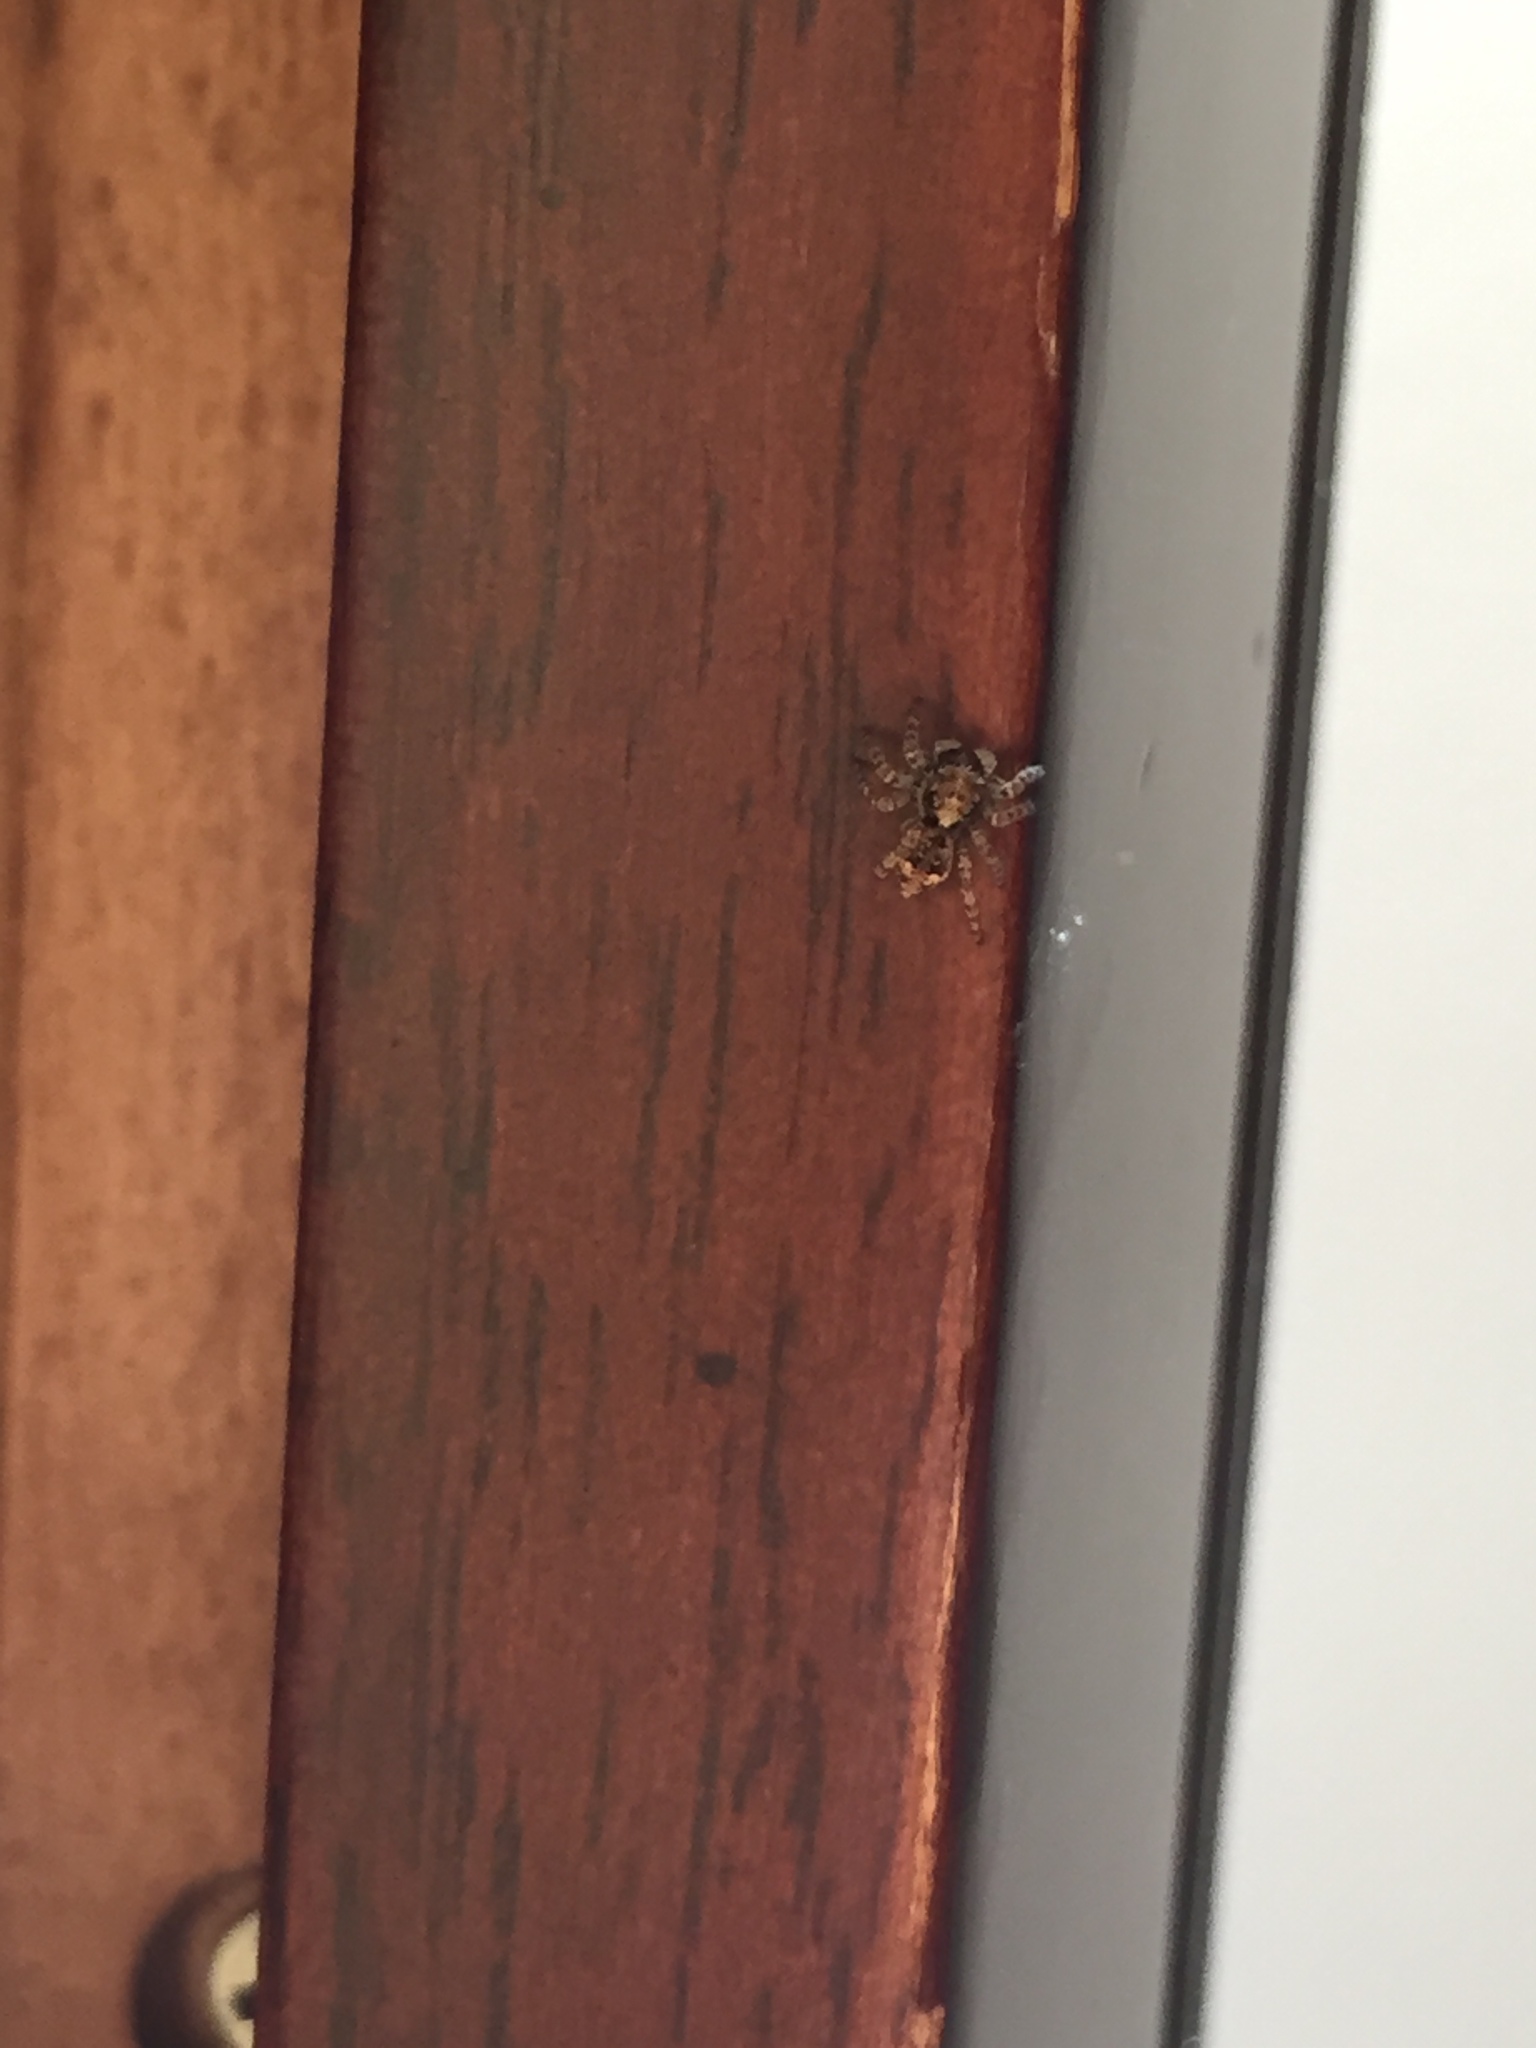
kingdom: Animalia
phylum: Arthropoda
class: Arachnida
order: Araneae
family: Salticidae
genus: Attulus
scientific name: Attulus fasciger
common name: Asiatic wall jumping spider
